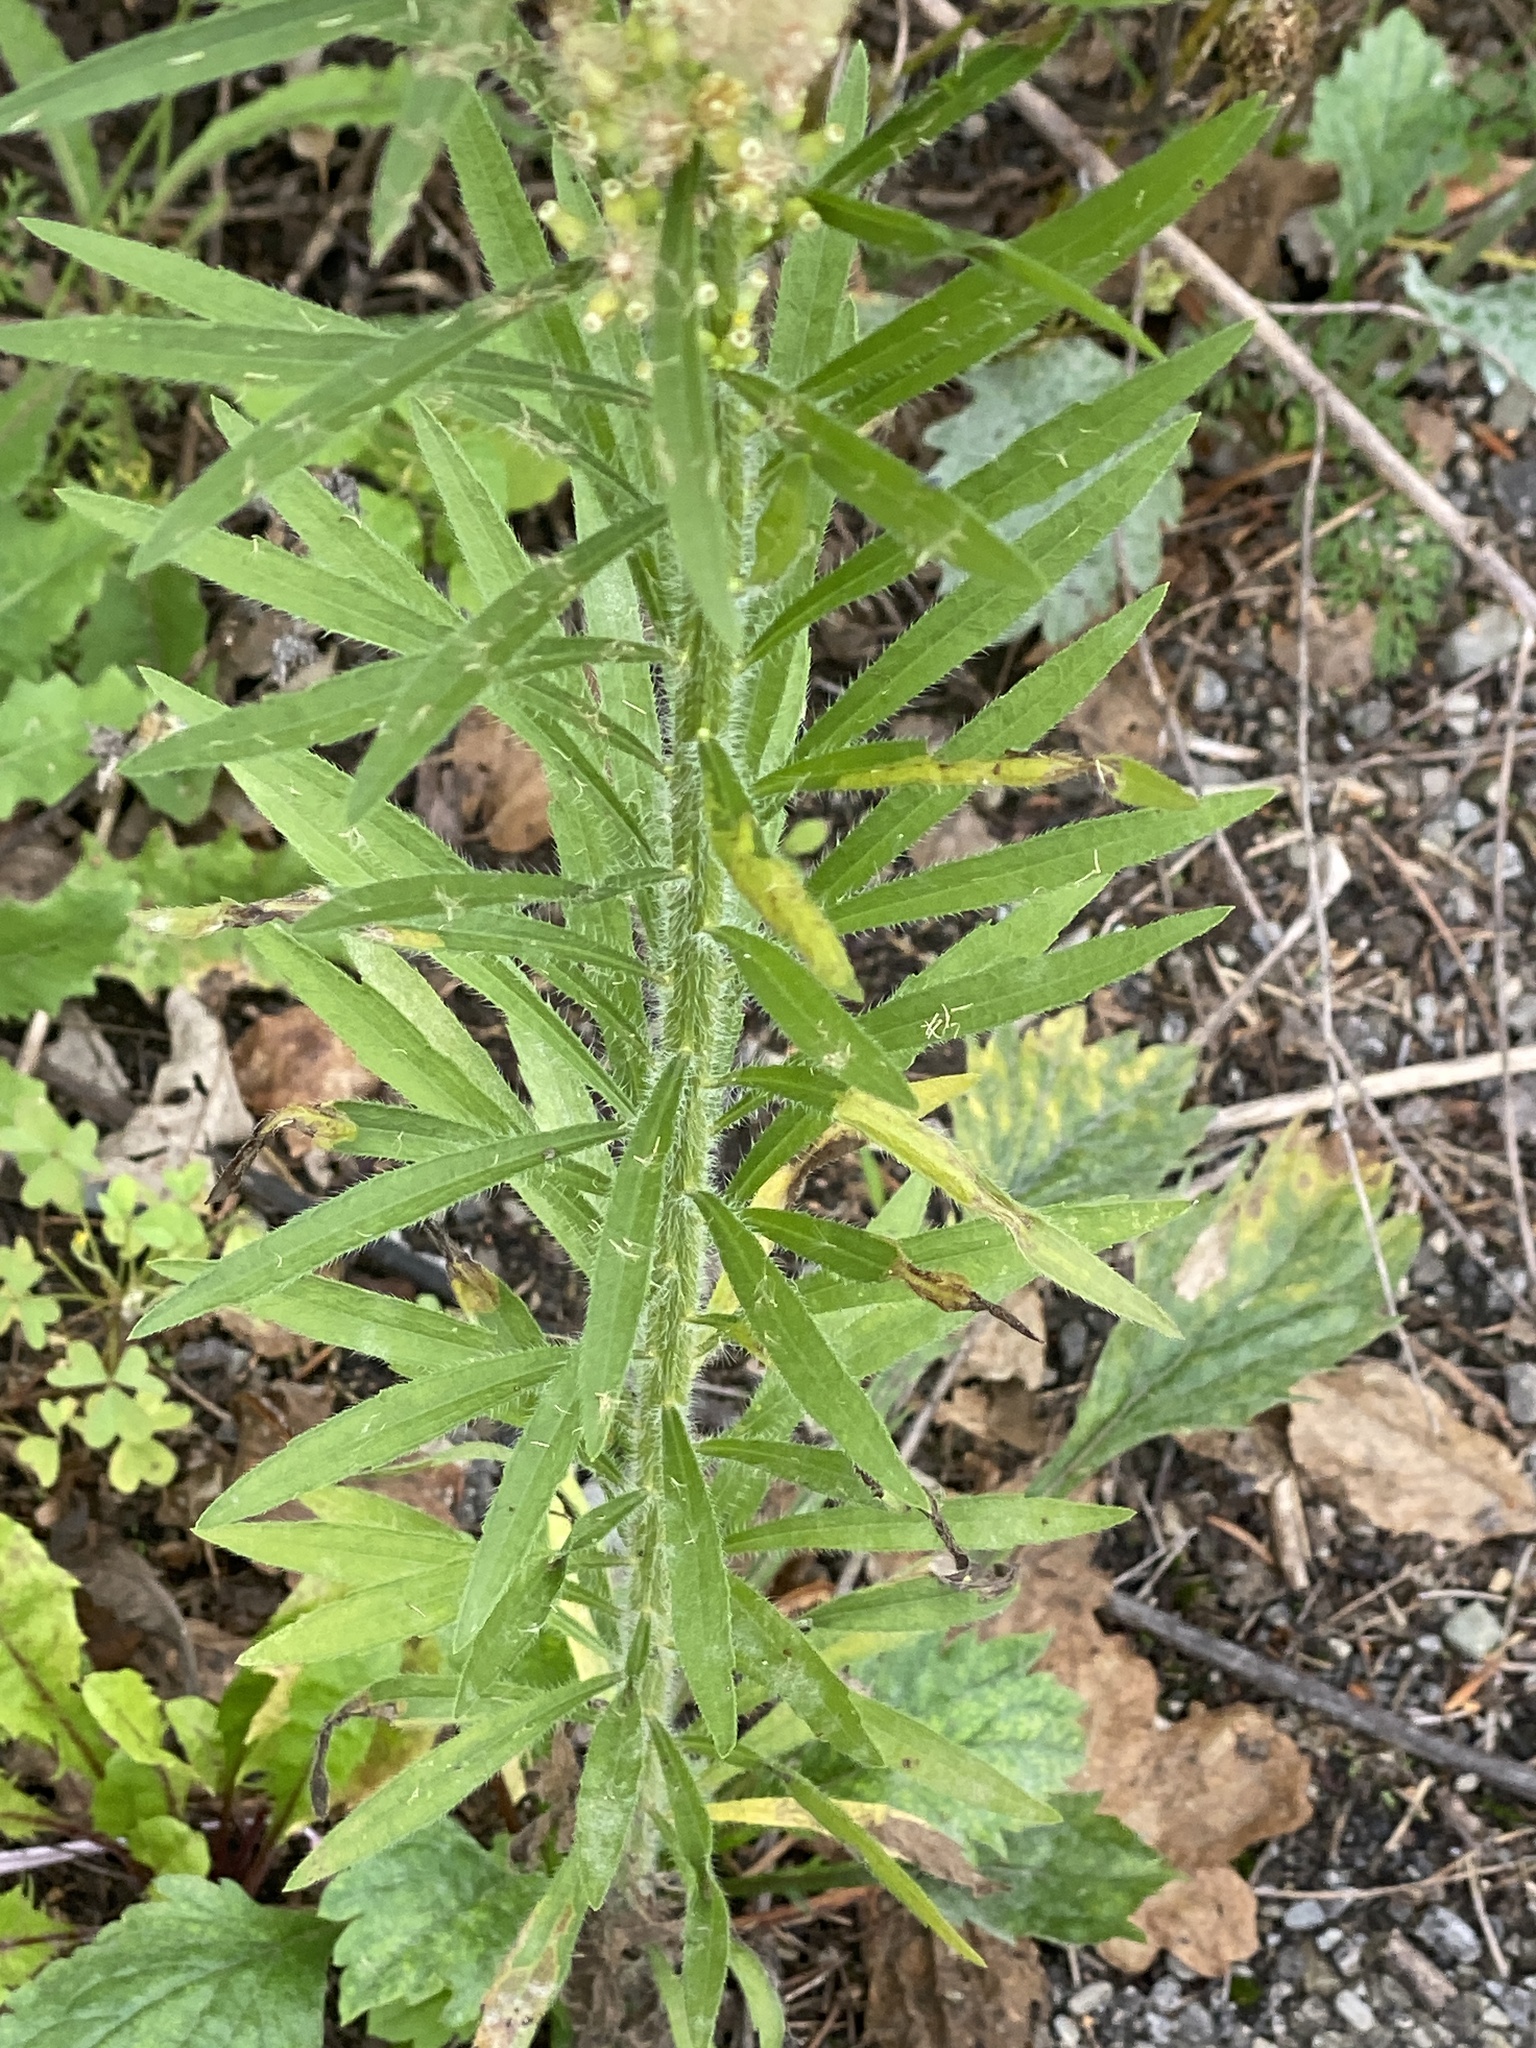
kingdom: Plantae
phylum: Tracheophyta
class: Magnoliopsida
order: Asterales
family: Asteraceae
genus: Erigeron
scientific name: Erigeron canadensis
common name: Canadian fleabane
